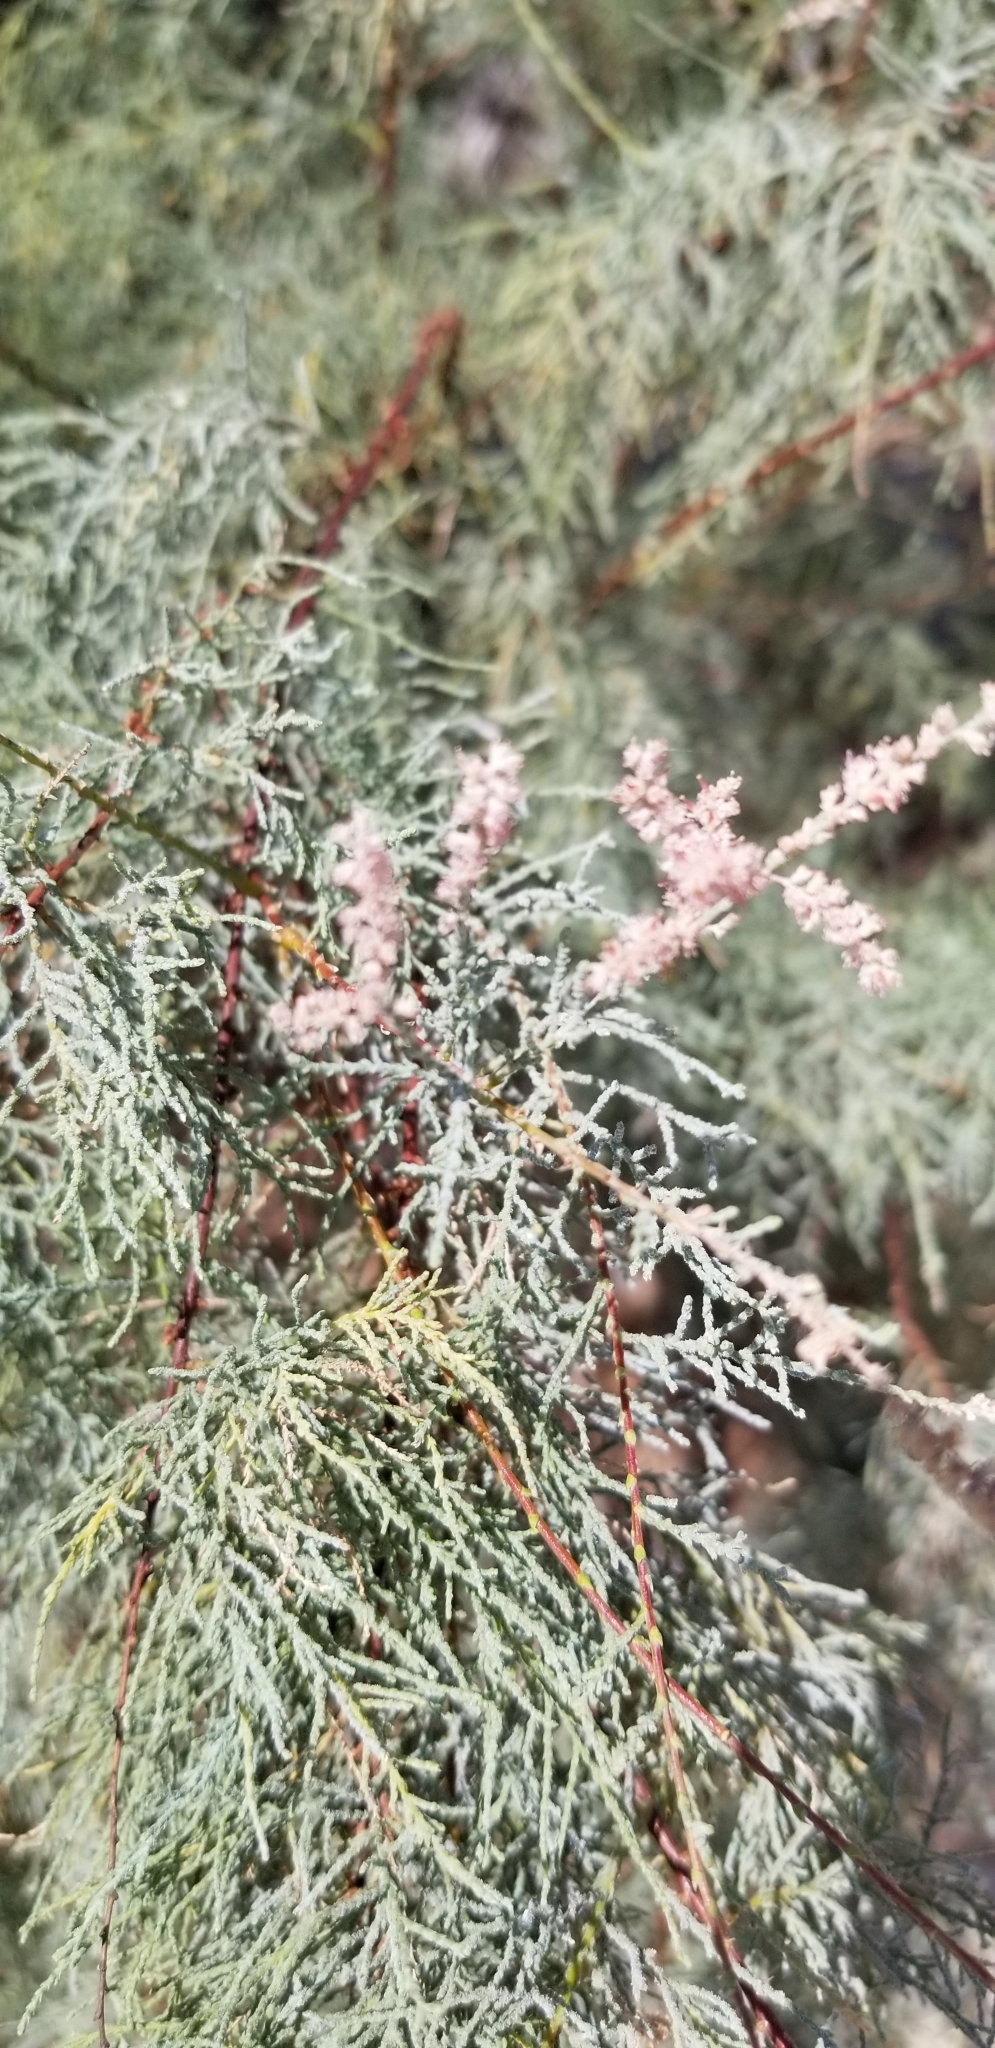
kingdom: Plantae
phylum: Tracheophyta
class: Magnoliopsida
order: Caryophyllales
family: Tamaricaceae
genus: Tamarix
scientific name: Tamarix ramosissima
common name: Pink tamarisk
